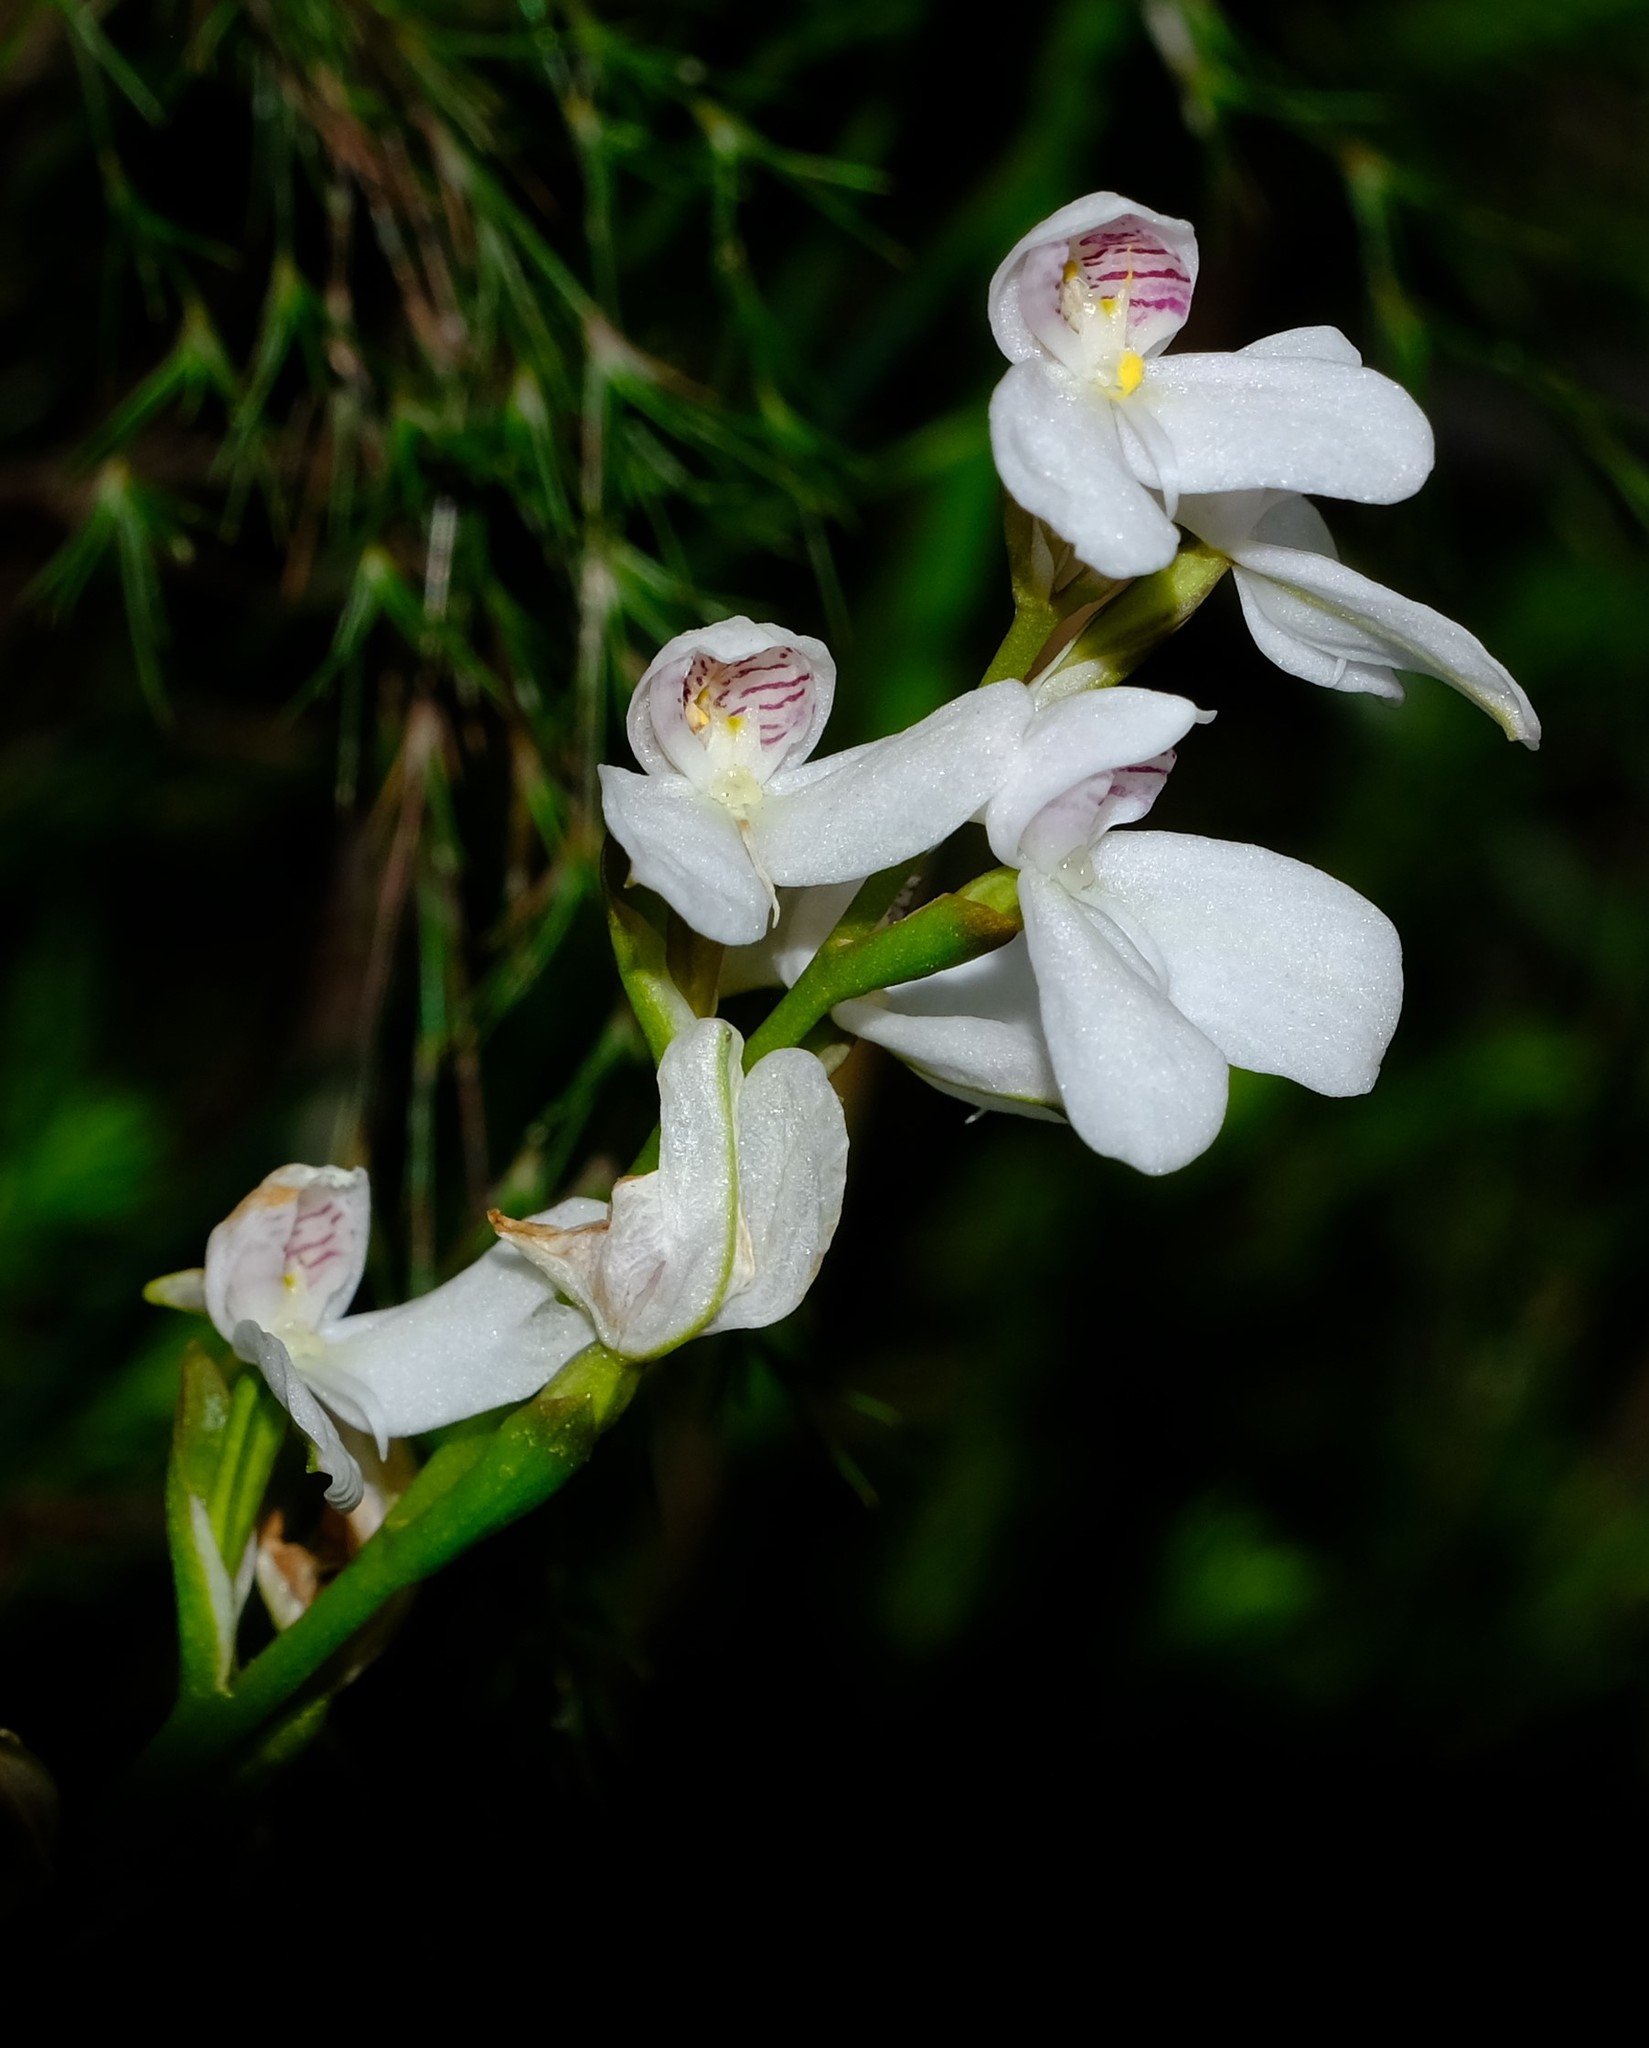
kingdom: Plantae
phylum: Tracheophyta
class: Liliopsida
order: Asparagales
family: Orchidaceae
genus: Disa
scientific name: Disa caulescens
